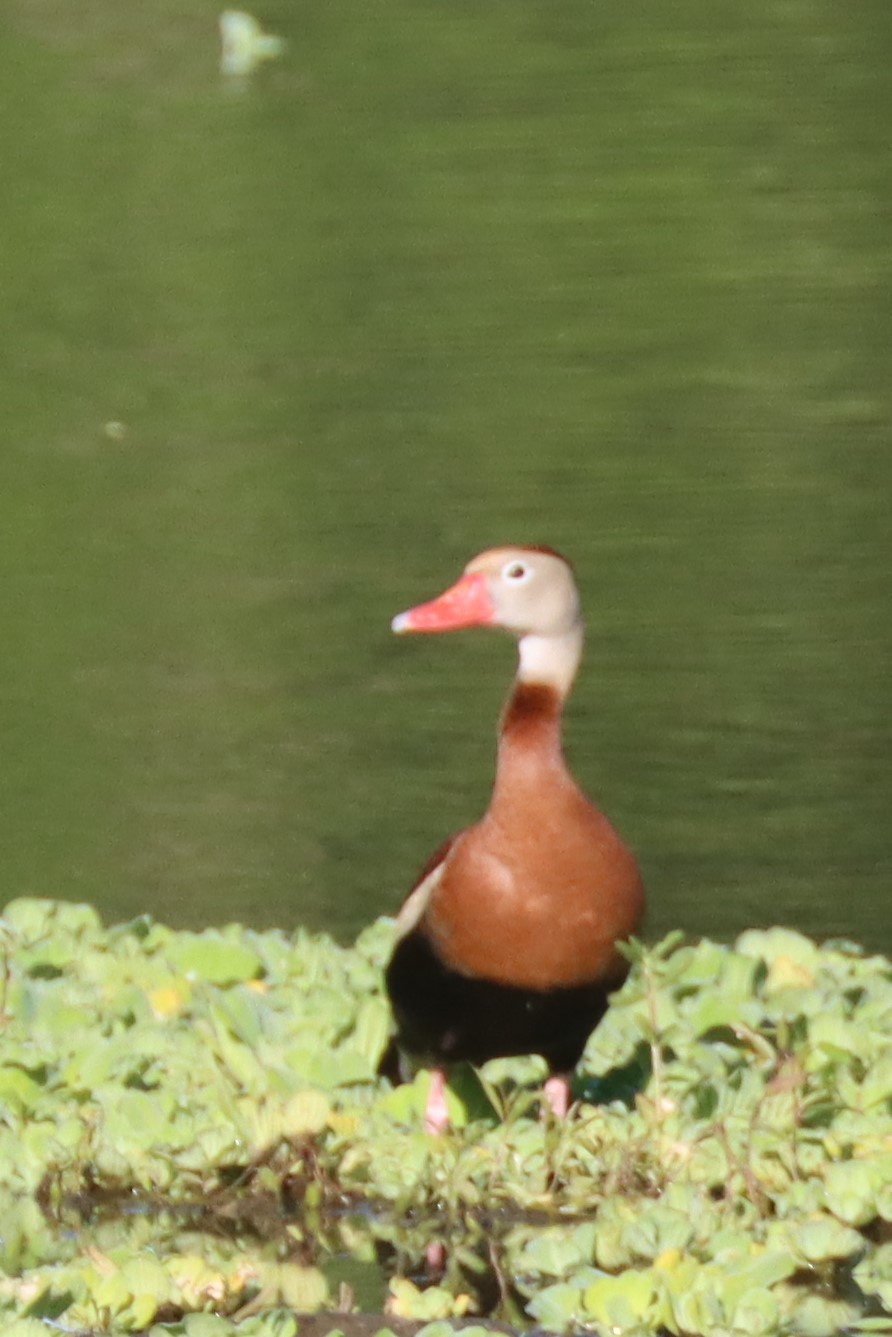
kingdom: Animalia
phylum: Chordata
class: Aves
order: Anseriformes
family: Anatidae
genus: Dendrocygna
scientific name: Dendrocygna autumnalis
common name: Black-bellied whistling duck
